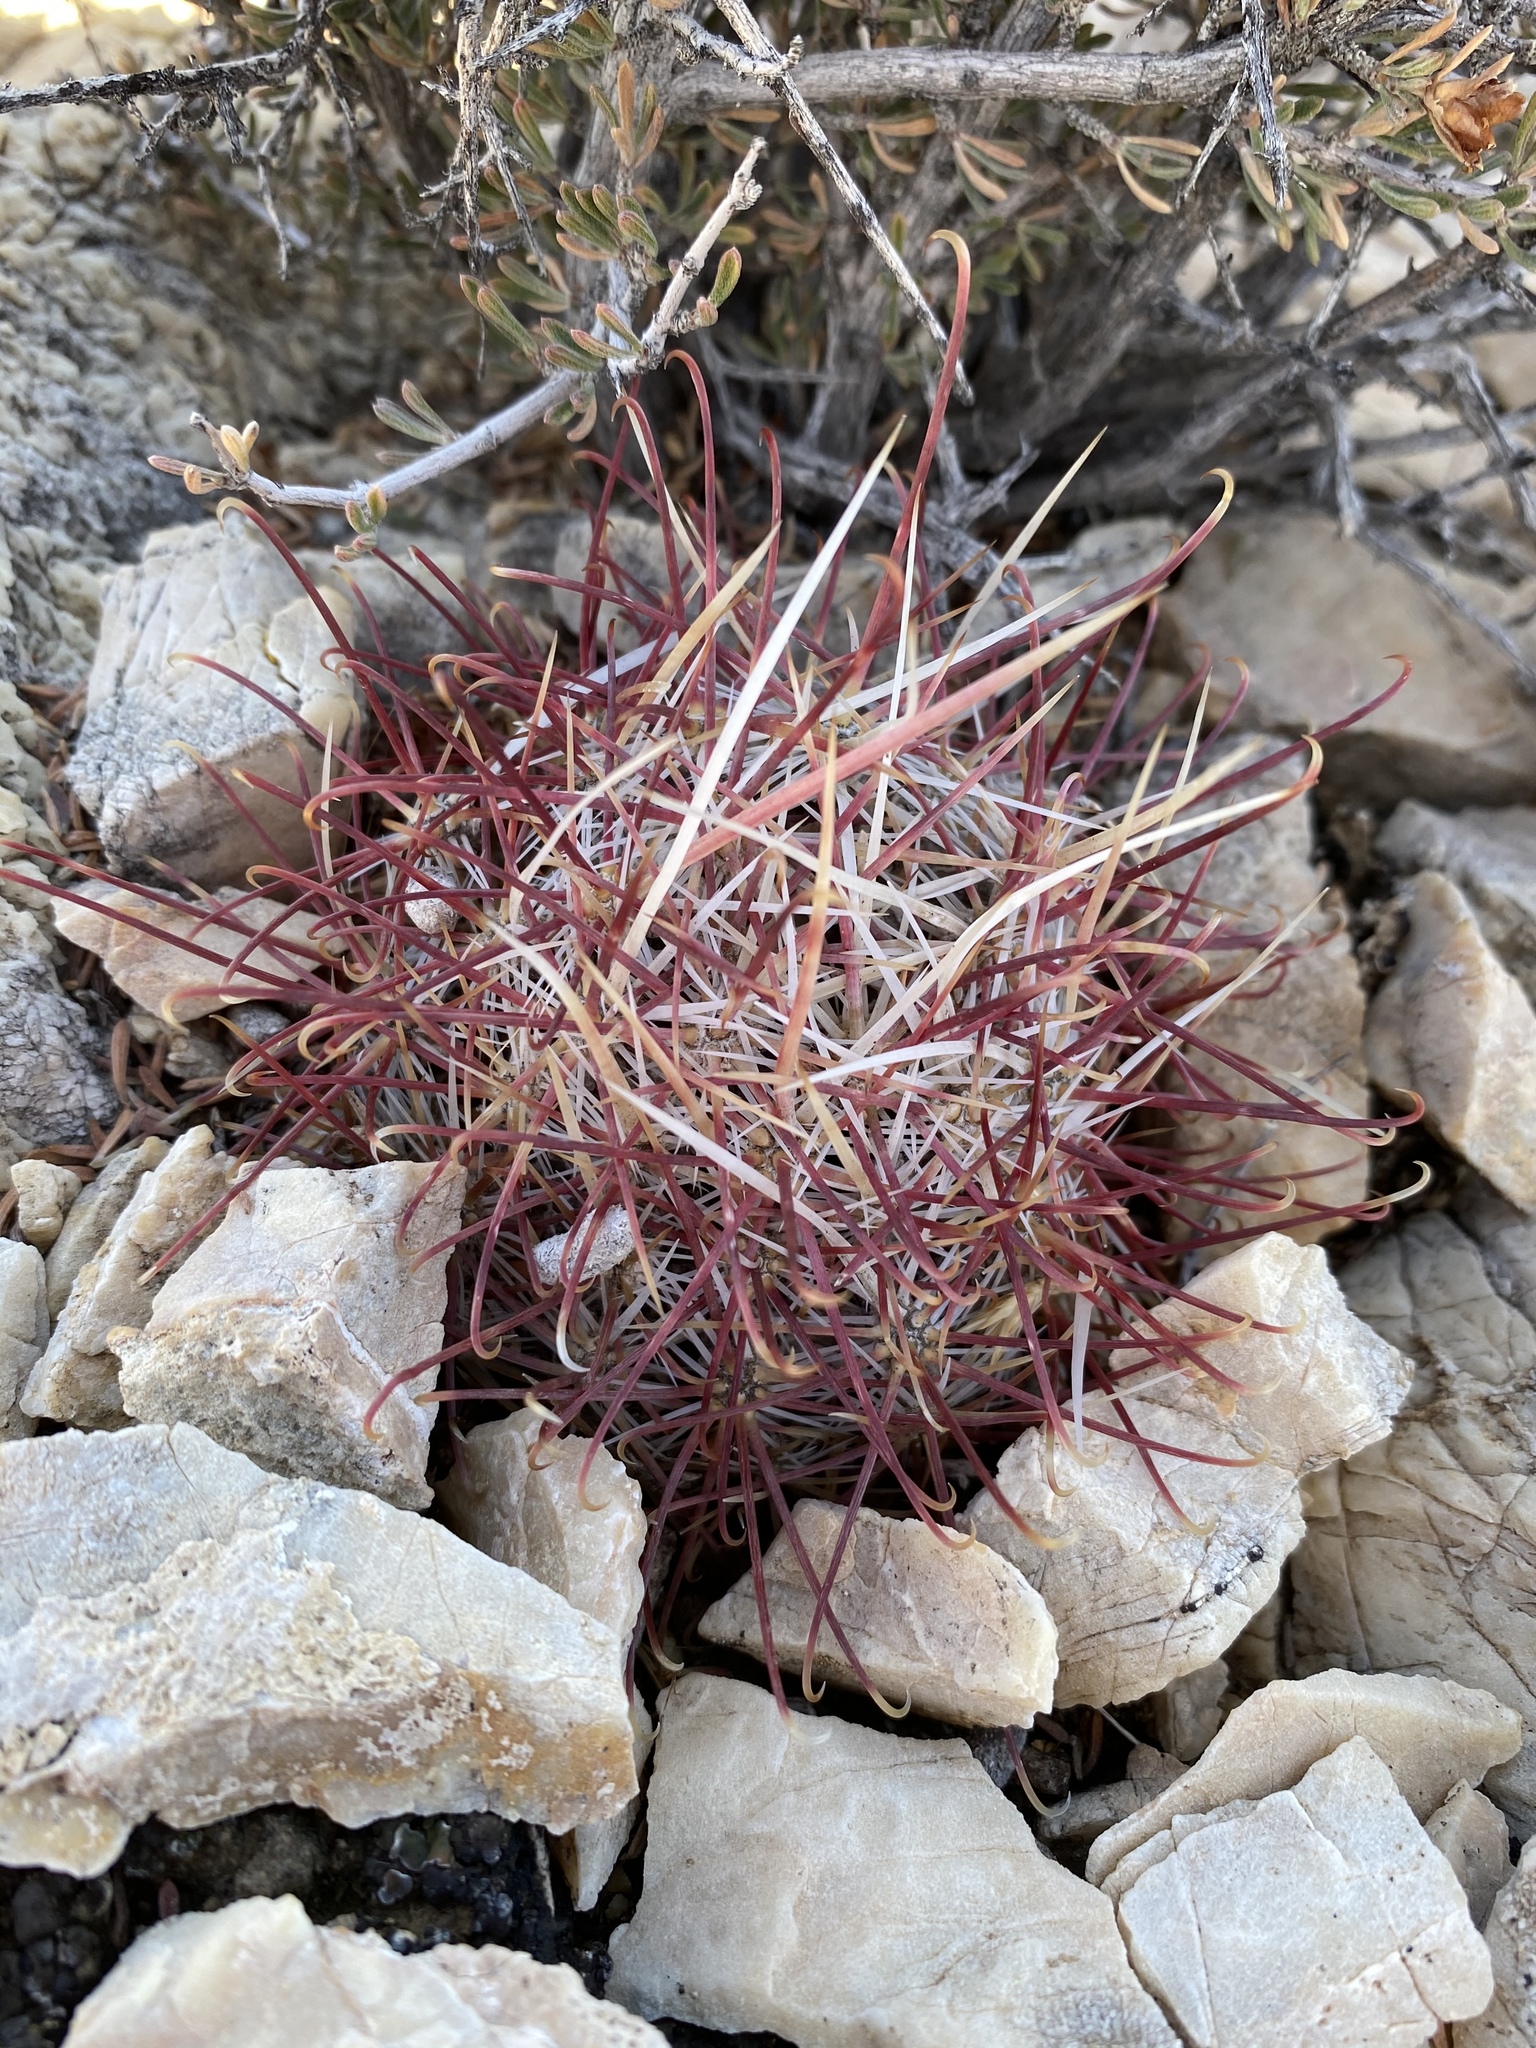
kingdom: Plantae
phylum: Tracheophyta
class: Magnoliopsida
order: Caryophyllales
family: Cactaceae
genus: Sclerocactus
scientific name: Sclerocactus polyancistrus
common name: Mohave fishhook cactus
